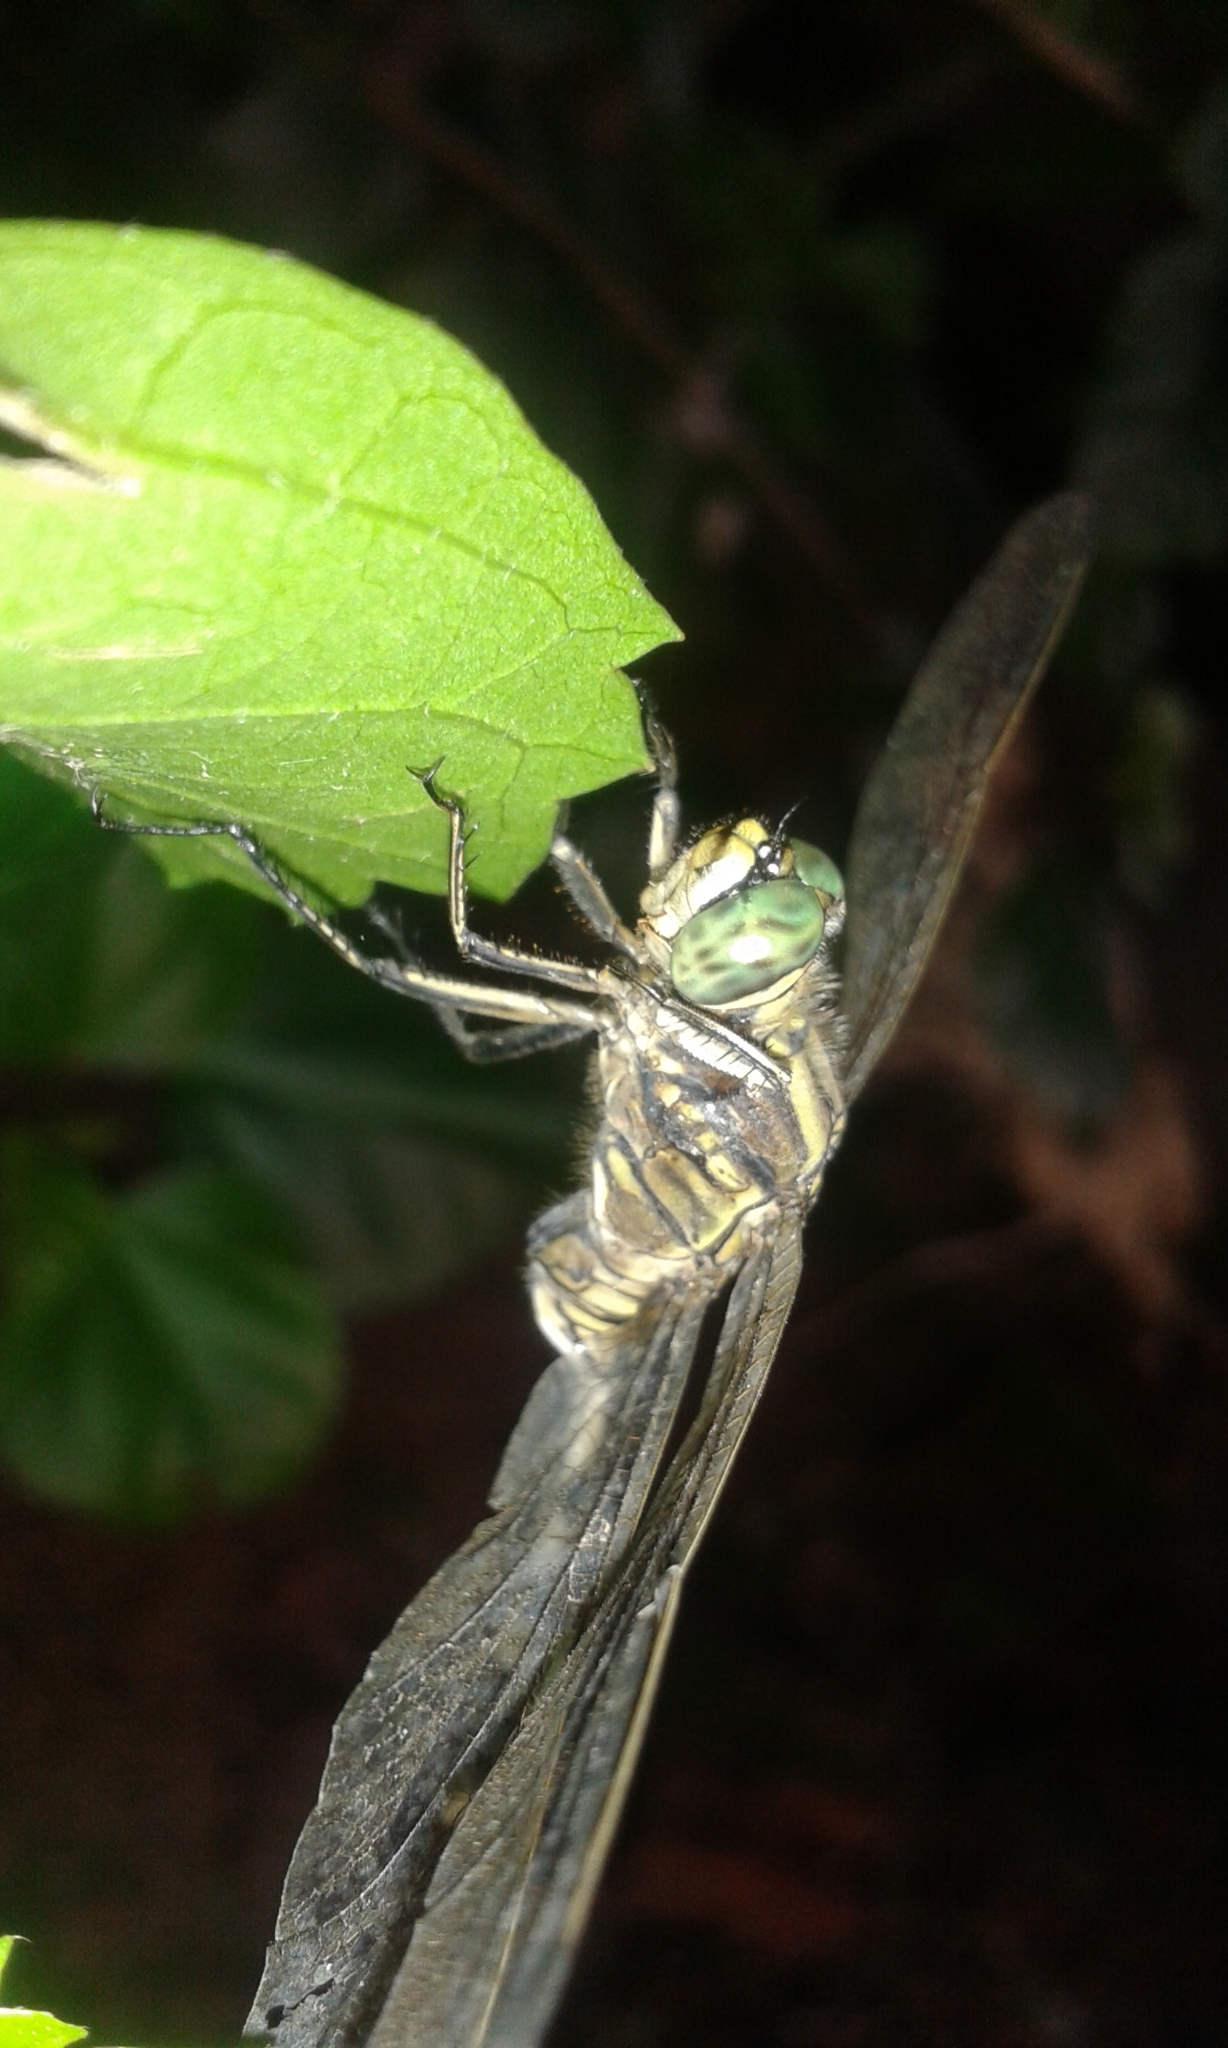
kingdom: Animalia
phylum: Arthropoda
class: Insecta
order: Odonata
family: Libellulidae
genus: Orthetrum
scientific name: Orthetrum sabina
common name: Slender skimmer
